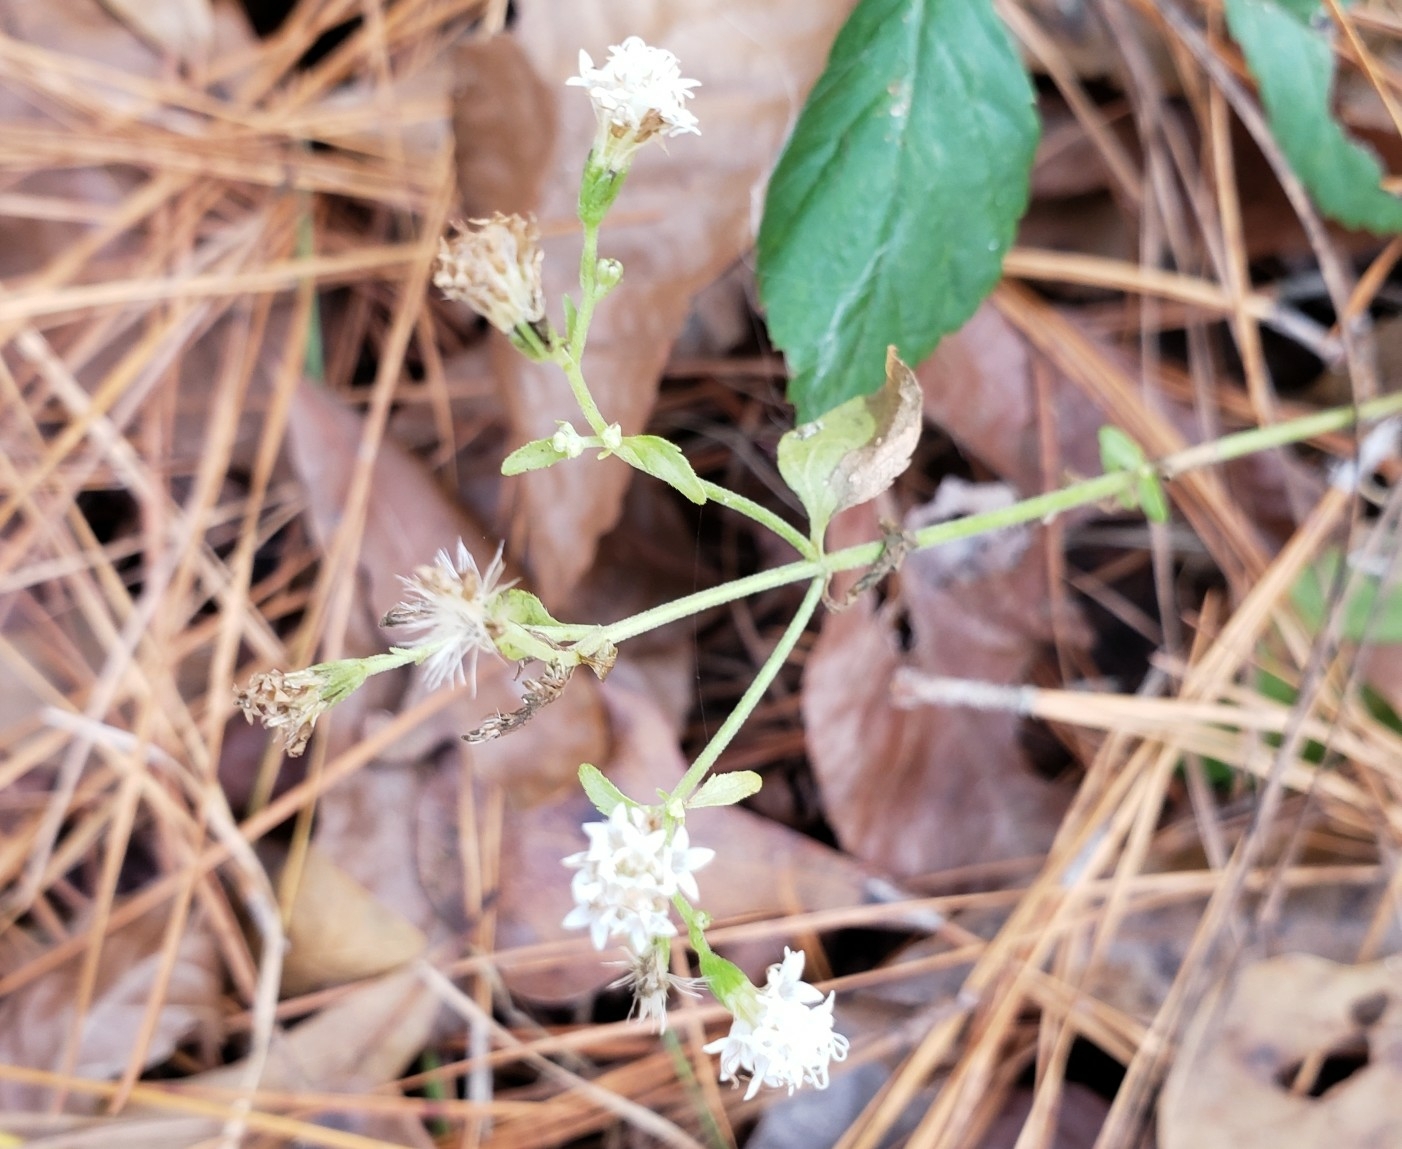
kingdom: Plantae
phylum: Tracheophyta
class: Magnoliopsida
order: Asterales
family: Asteraceae
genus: Ageratina
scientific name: Ageratina jucunda
